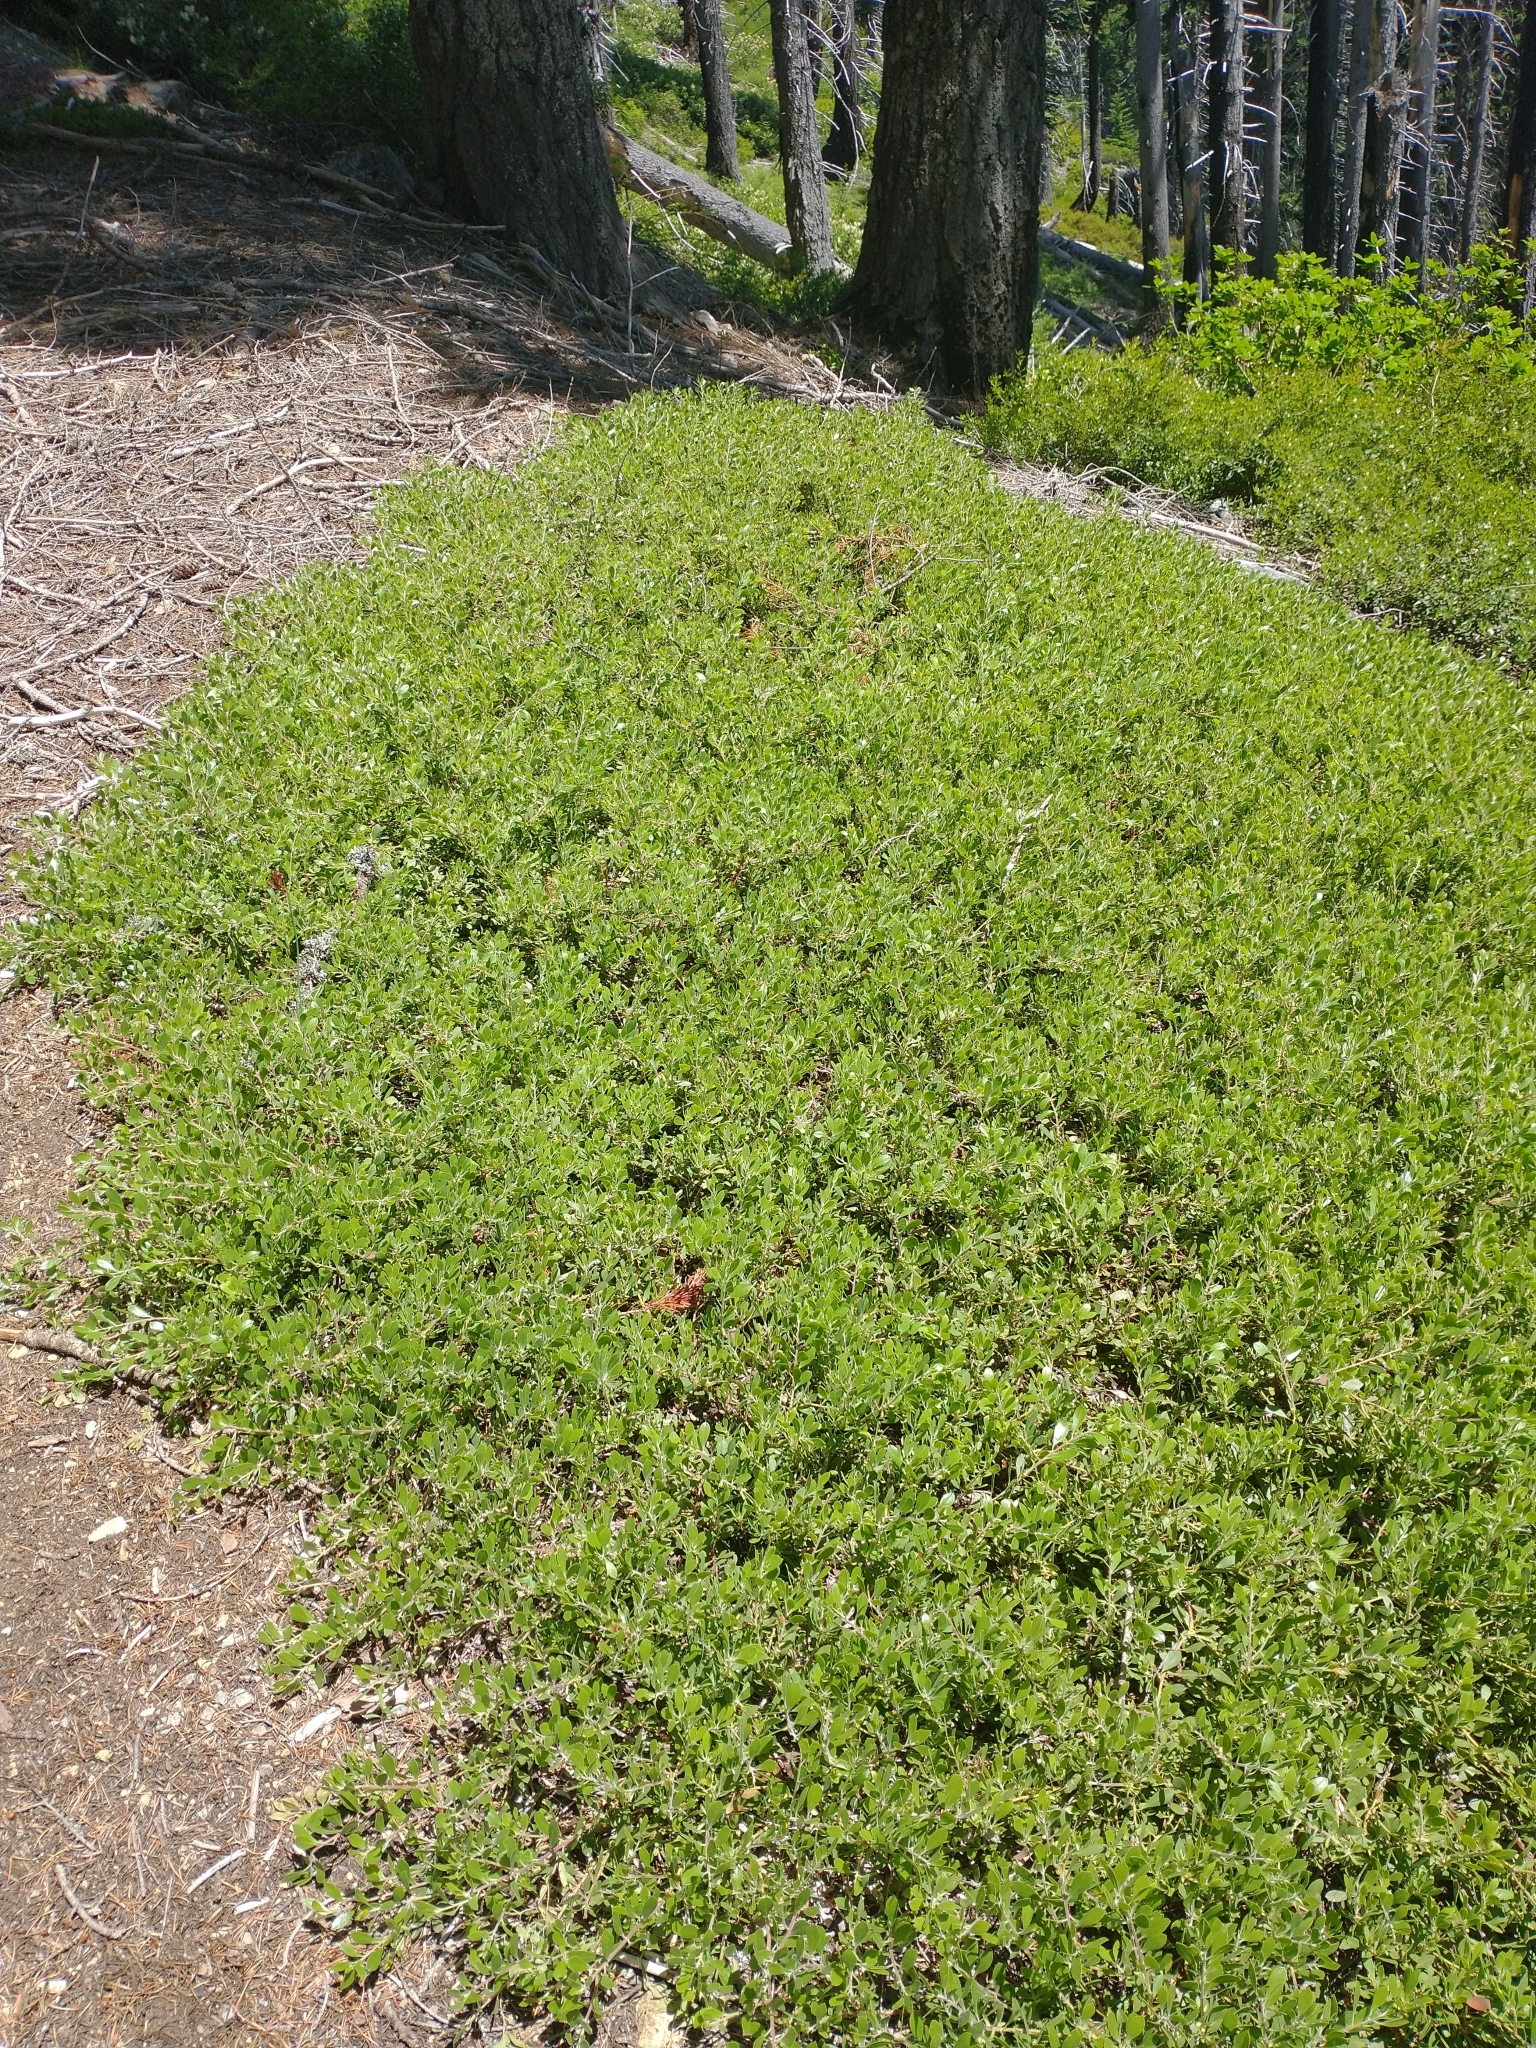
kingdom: Plantae
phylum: Tracheophyta
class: Magnoliopsida
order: Lamiales
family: Plantaginaceae
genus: Penstemon
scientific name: Penstemon davidsonii
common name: Davidson's penstemon
